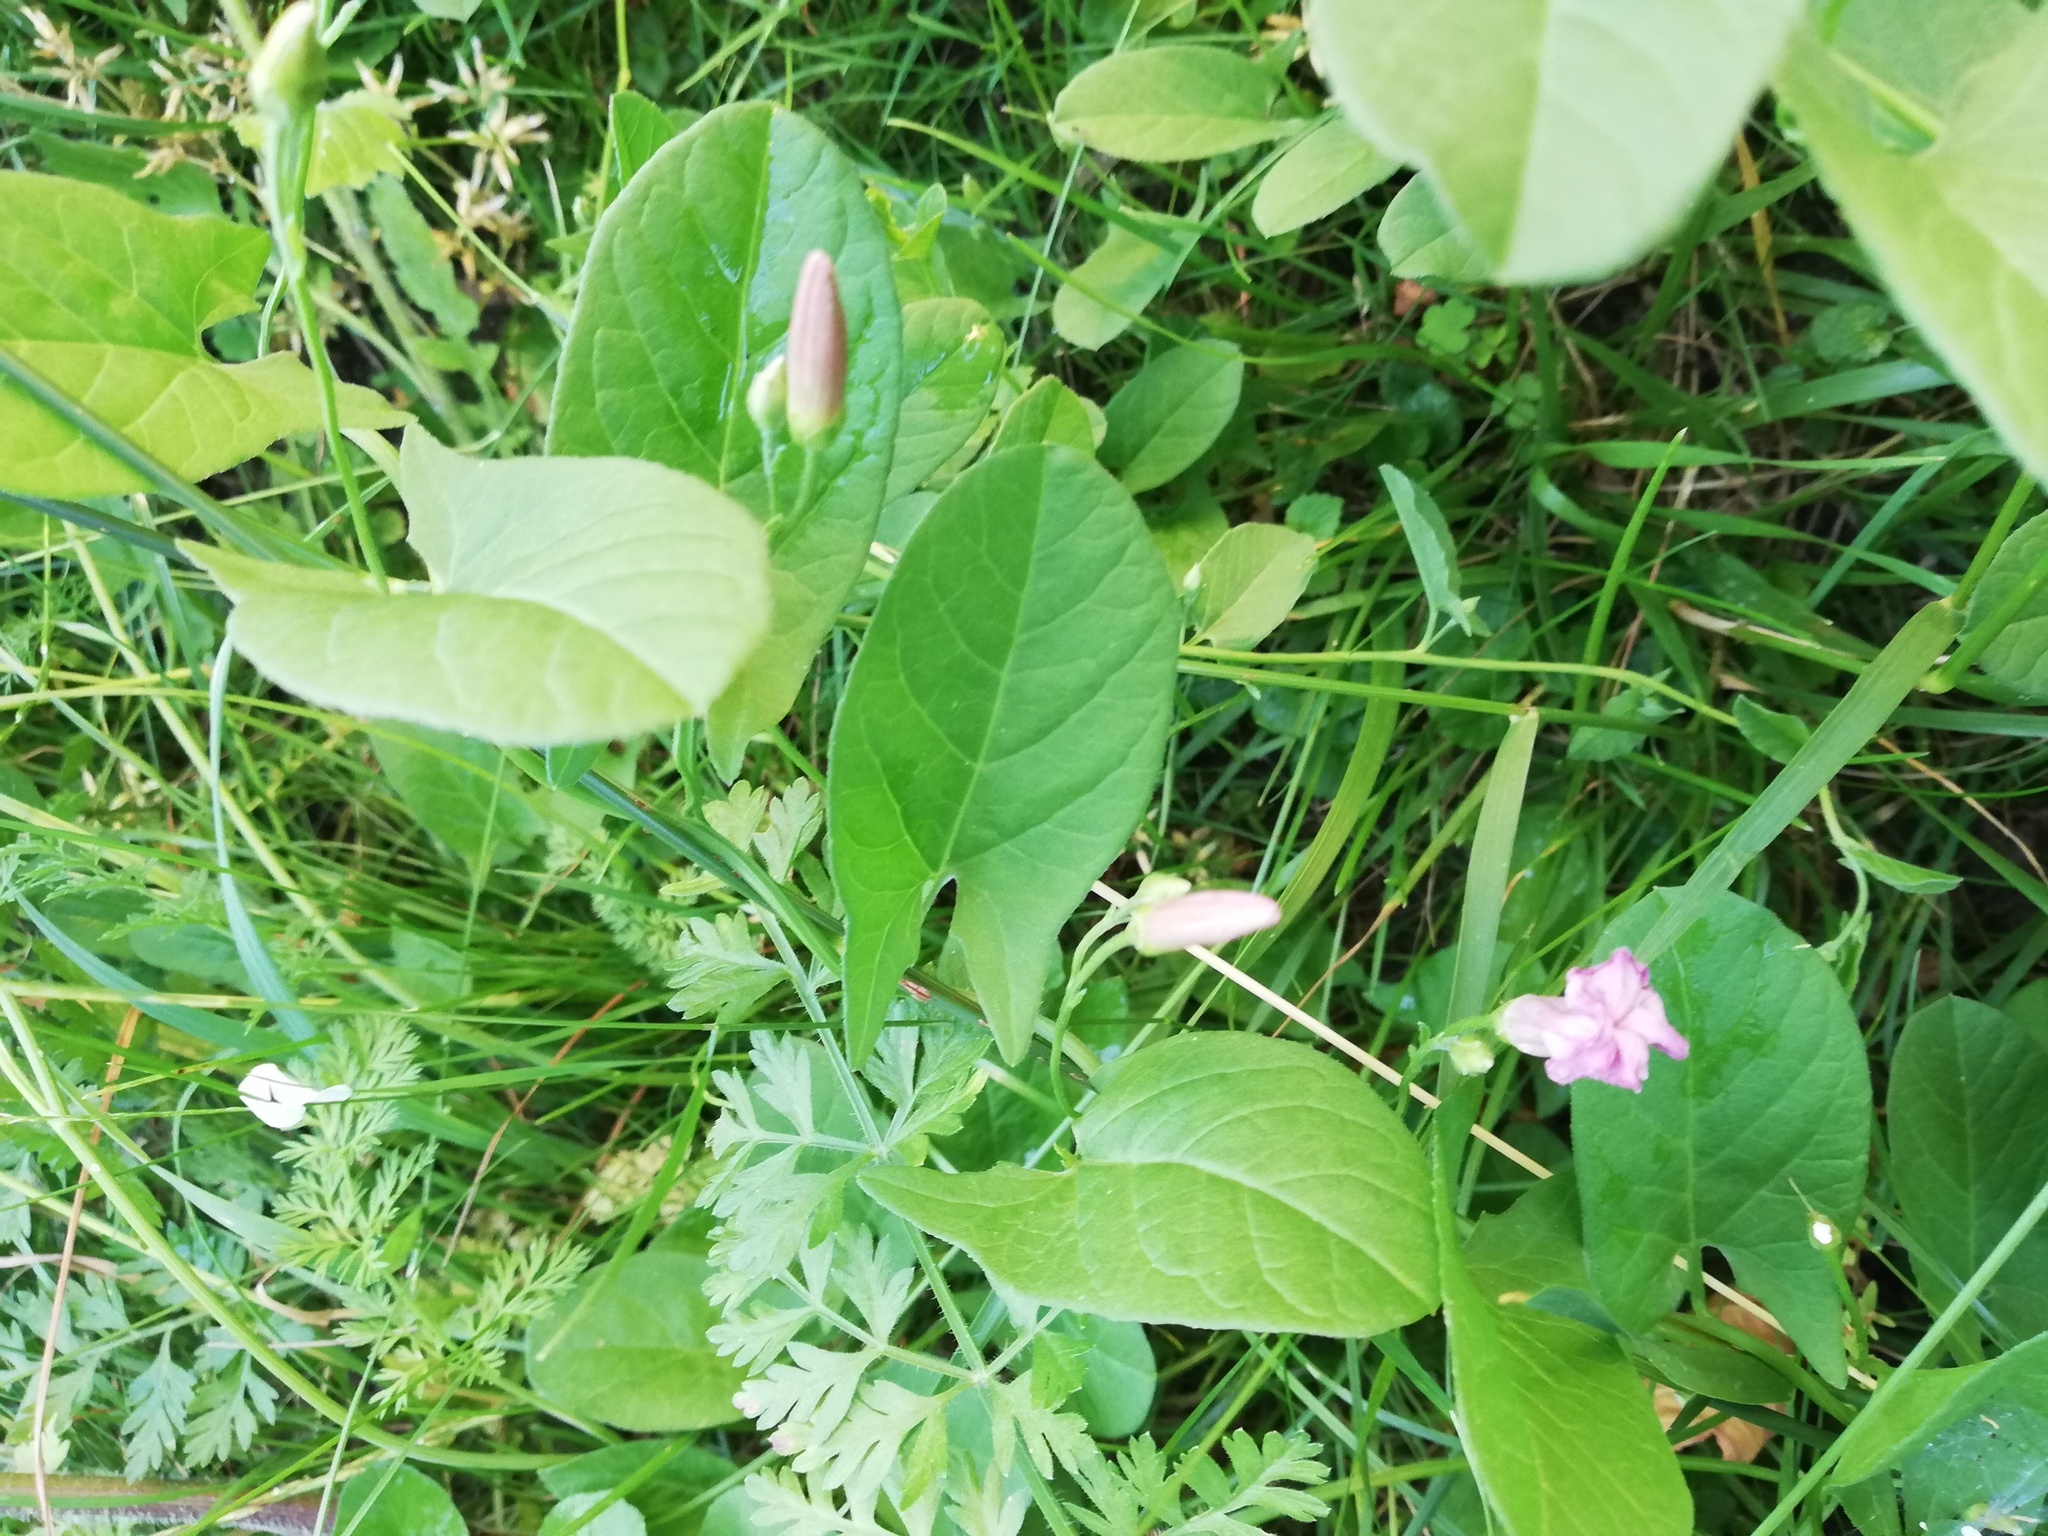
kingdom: Plantae
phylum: Tracheophyta
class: Magnoliopsida
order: Solanales
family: Convolvulaceae
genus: Convolvulus
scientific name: Convolvulus arvensis
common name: Field bindweed
